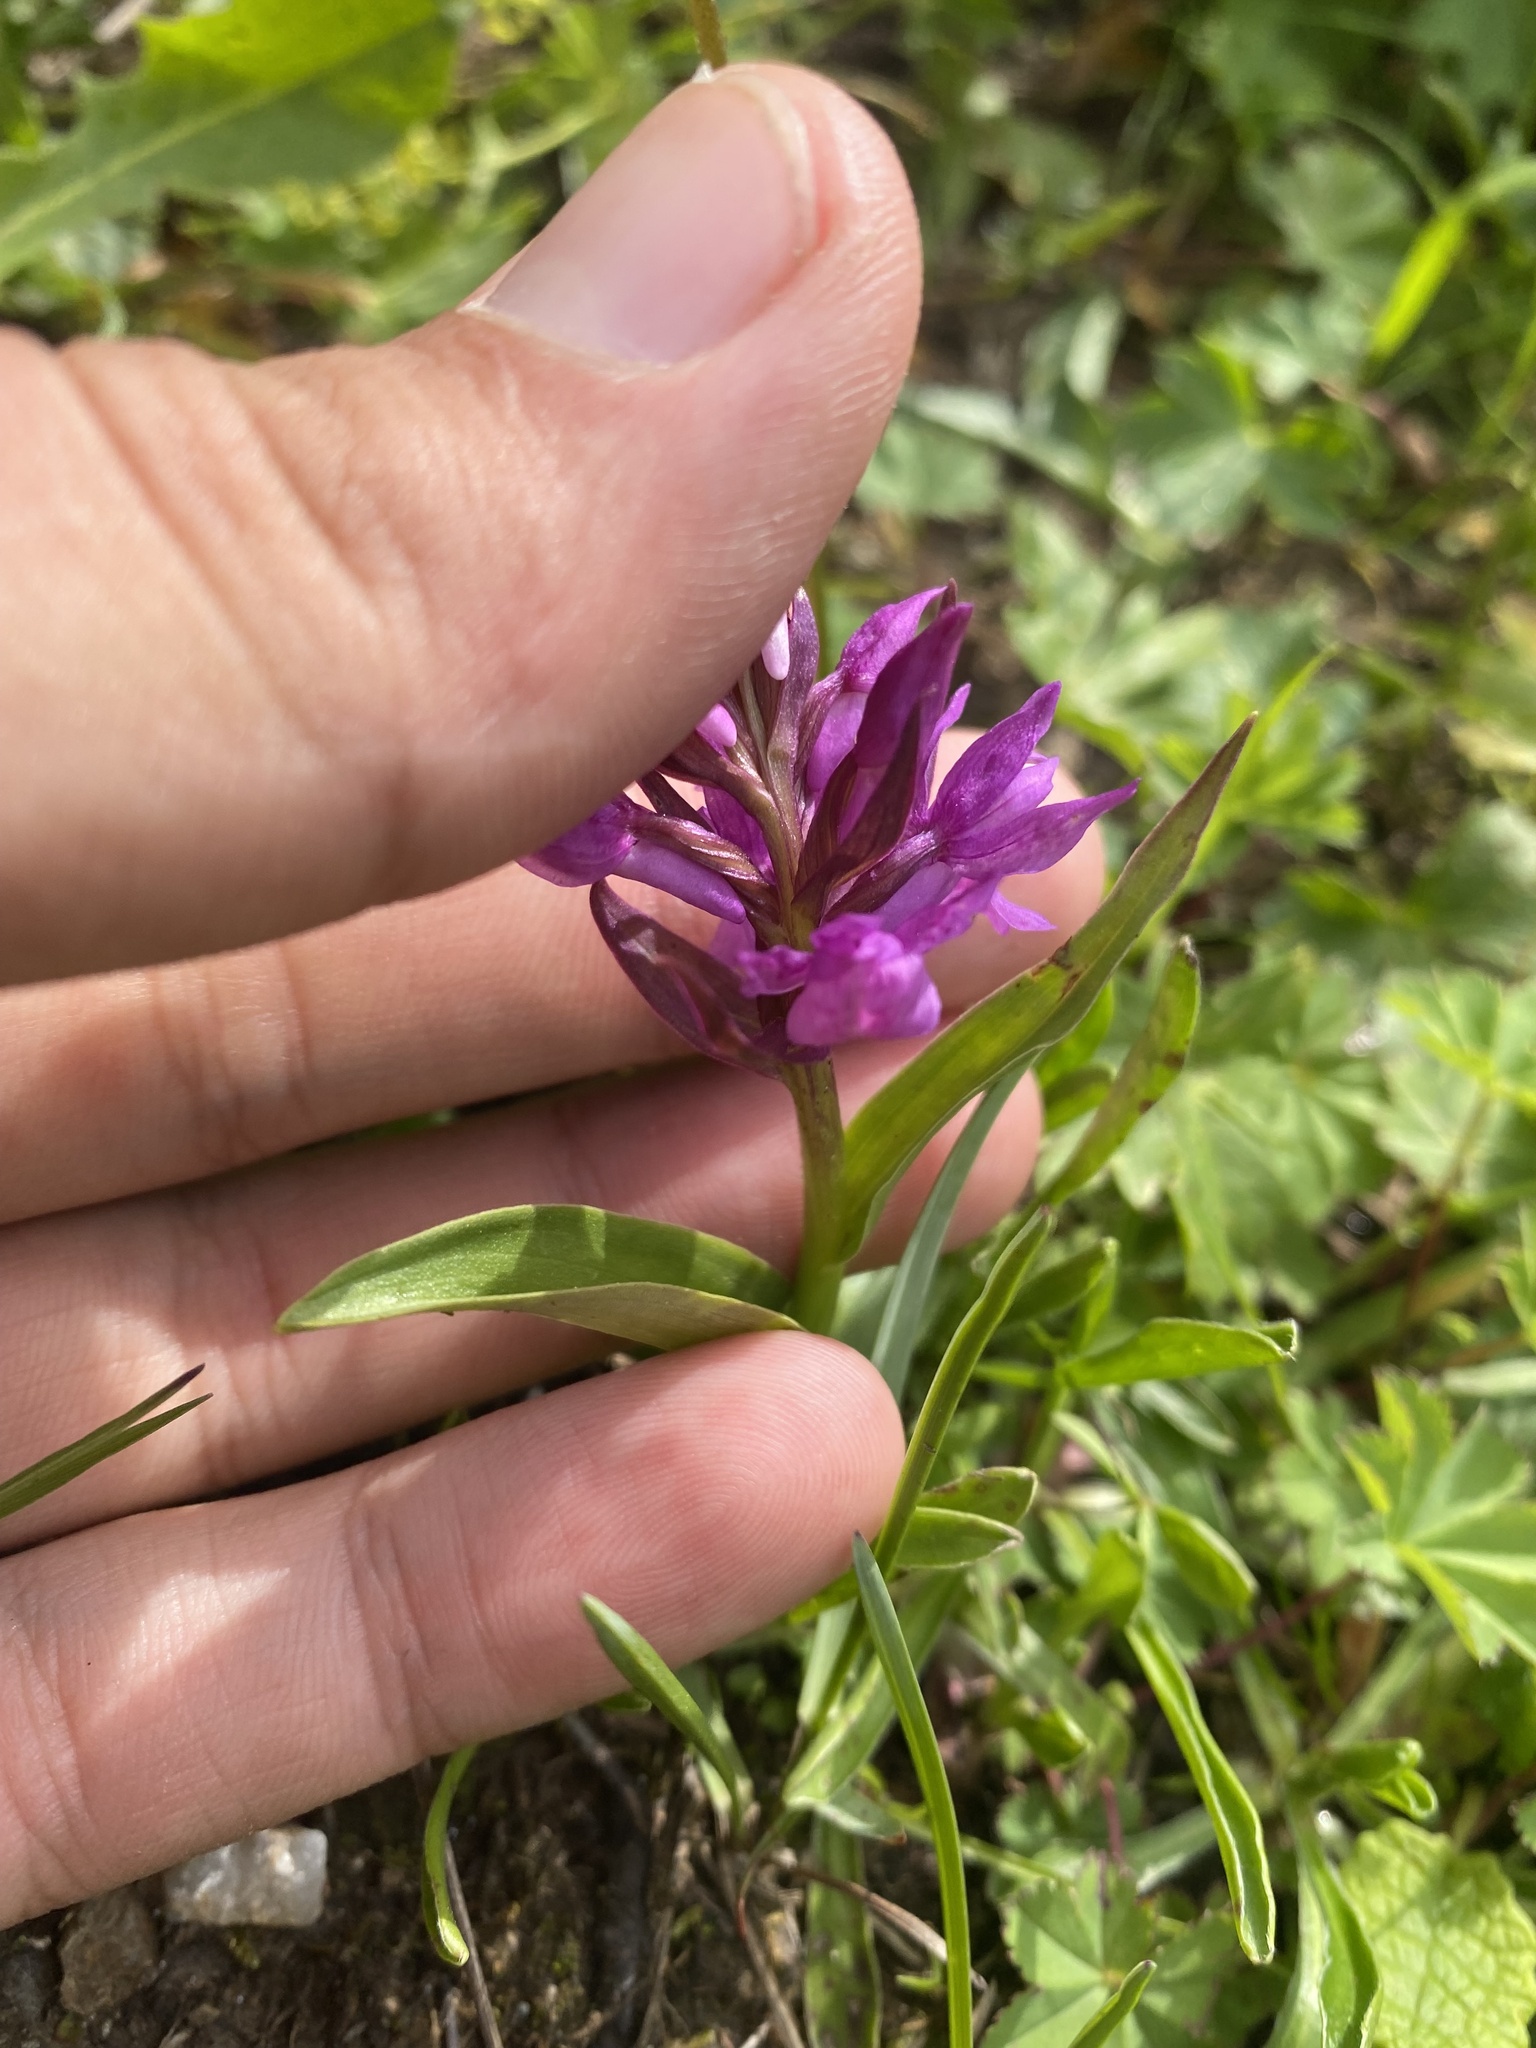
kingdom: Plantae
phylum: Tracheophyta
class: Liliopsida
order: Asparagales
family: Orchidaceae
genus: Dactylorhiza
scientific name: Dactylorhiza euxina
